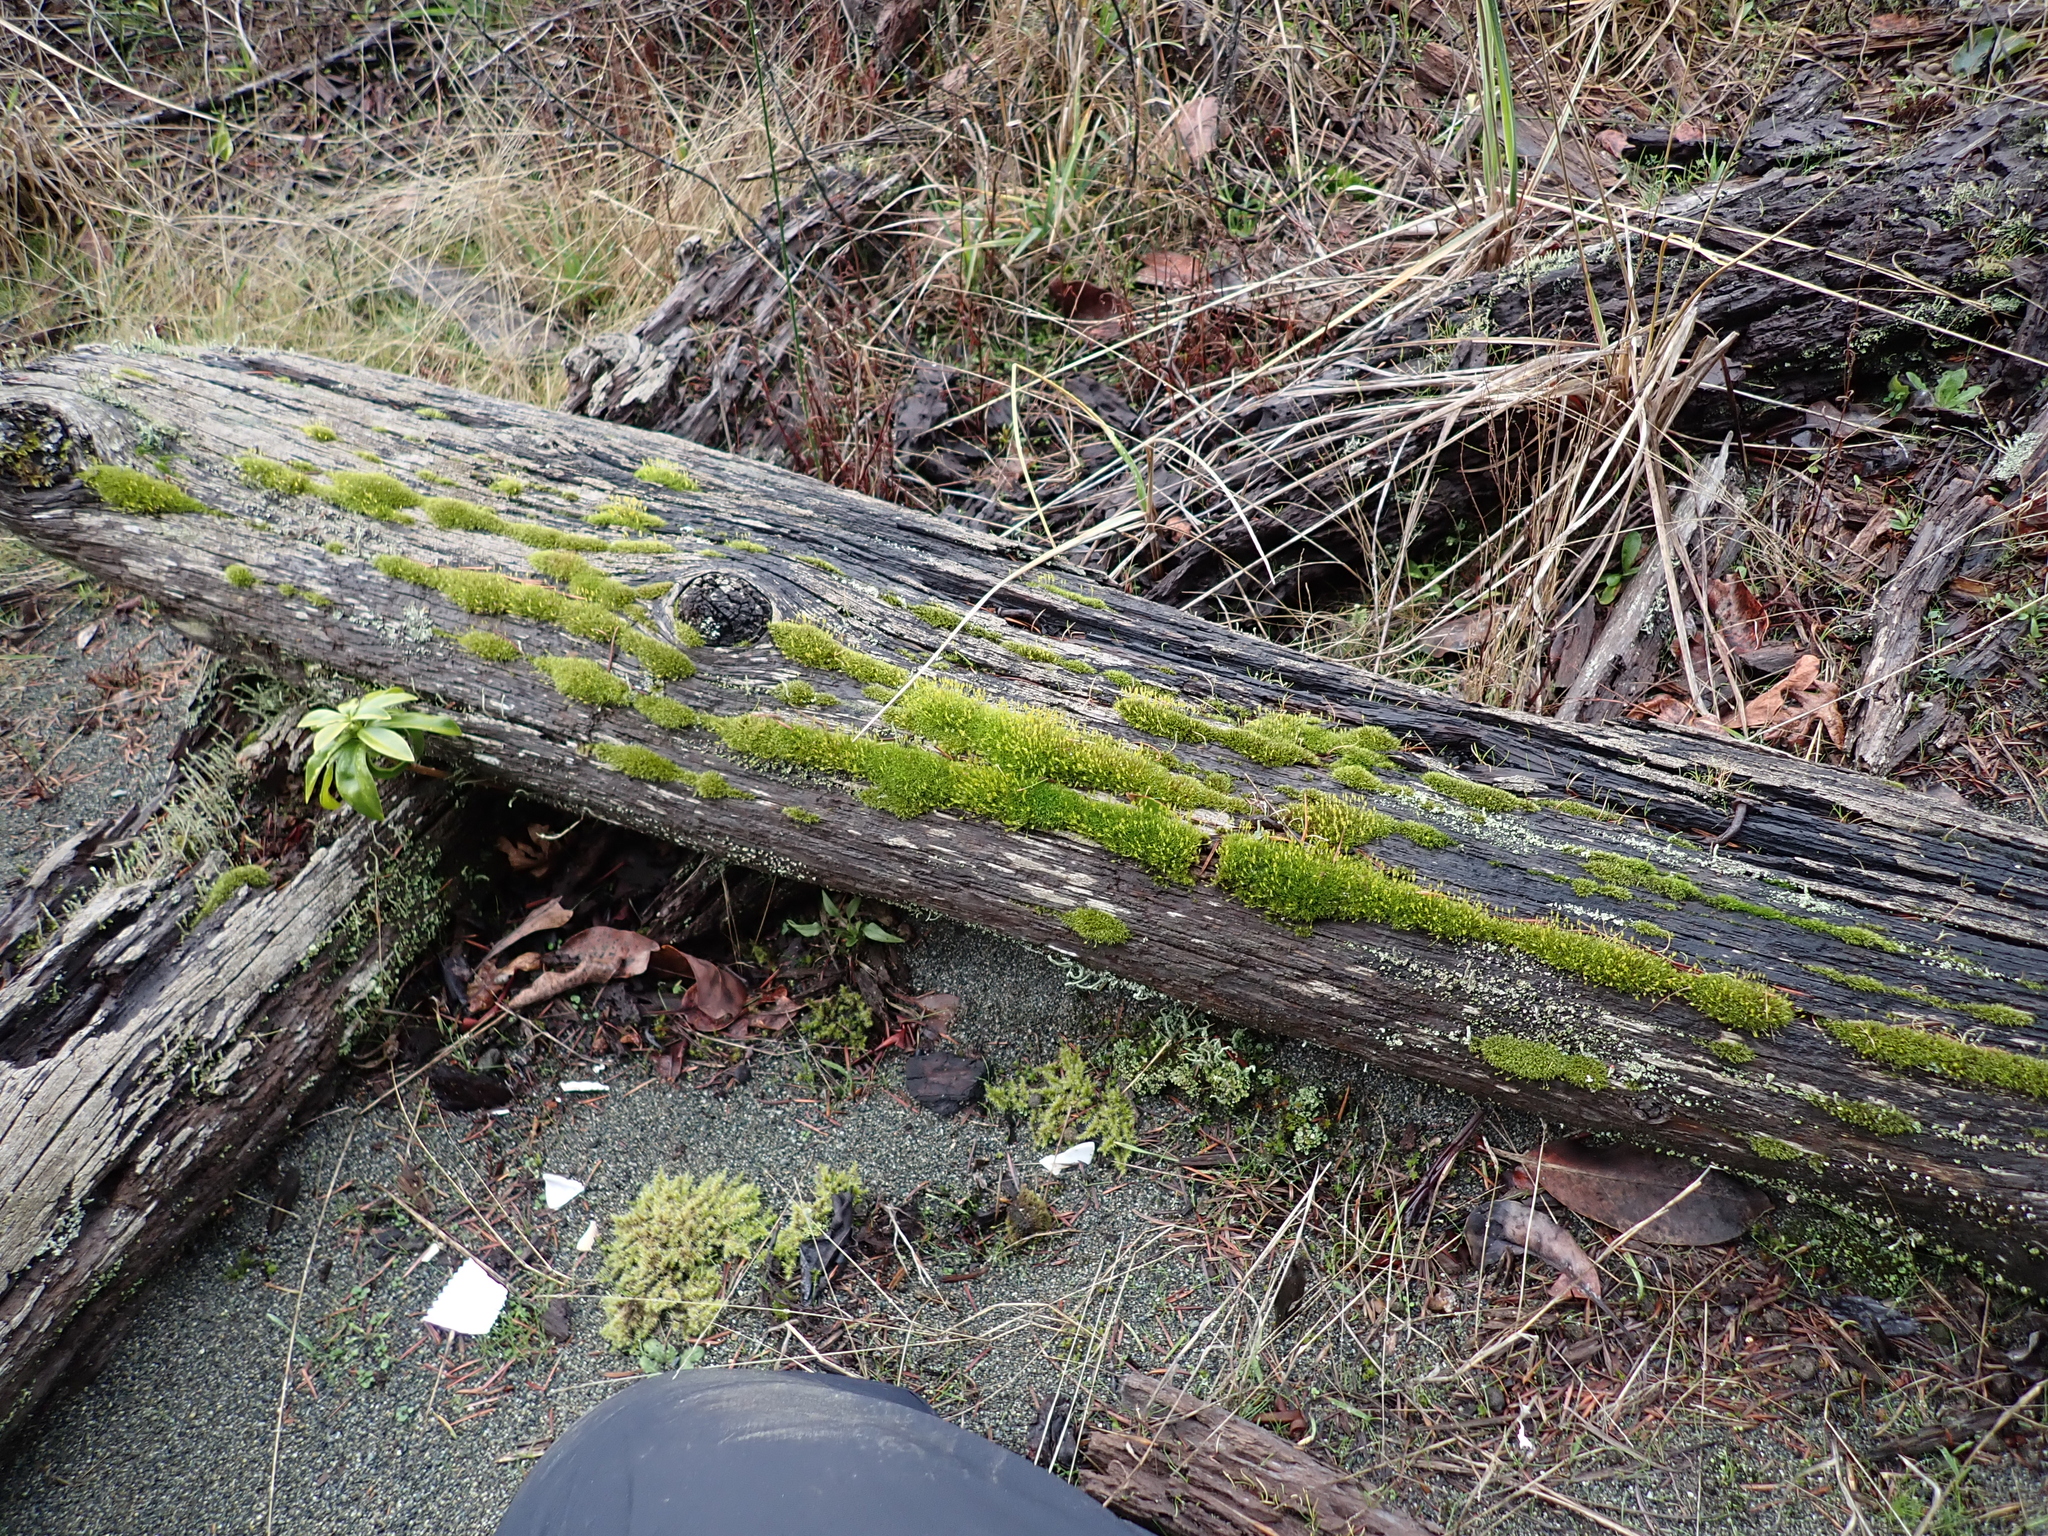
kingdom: Plantae
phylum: Bryophyta
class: Bryopsida
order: Dicranales
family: Rhabdoweisiaceae
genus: Dicranoweisia
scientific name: Dicranoweisia cirrata
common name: Common pincushion
